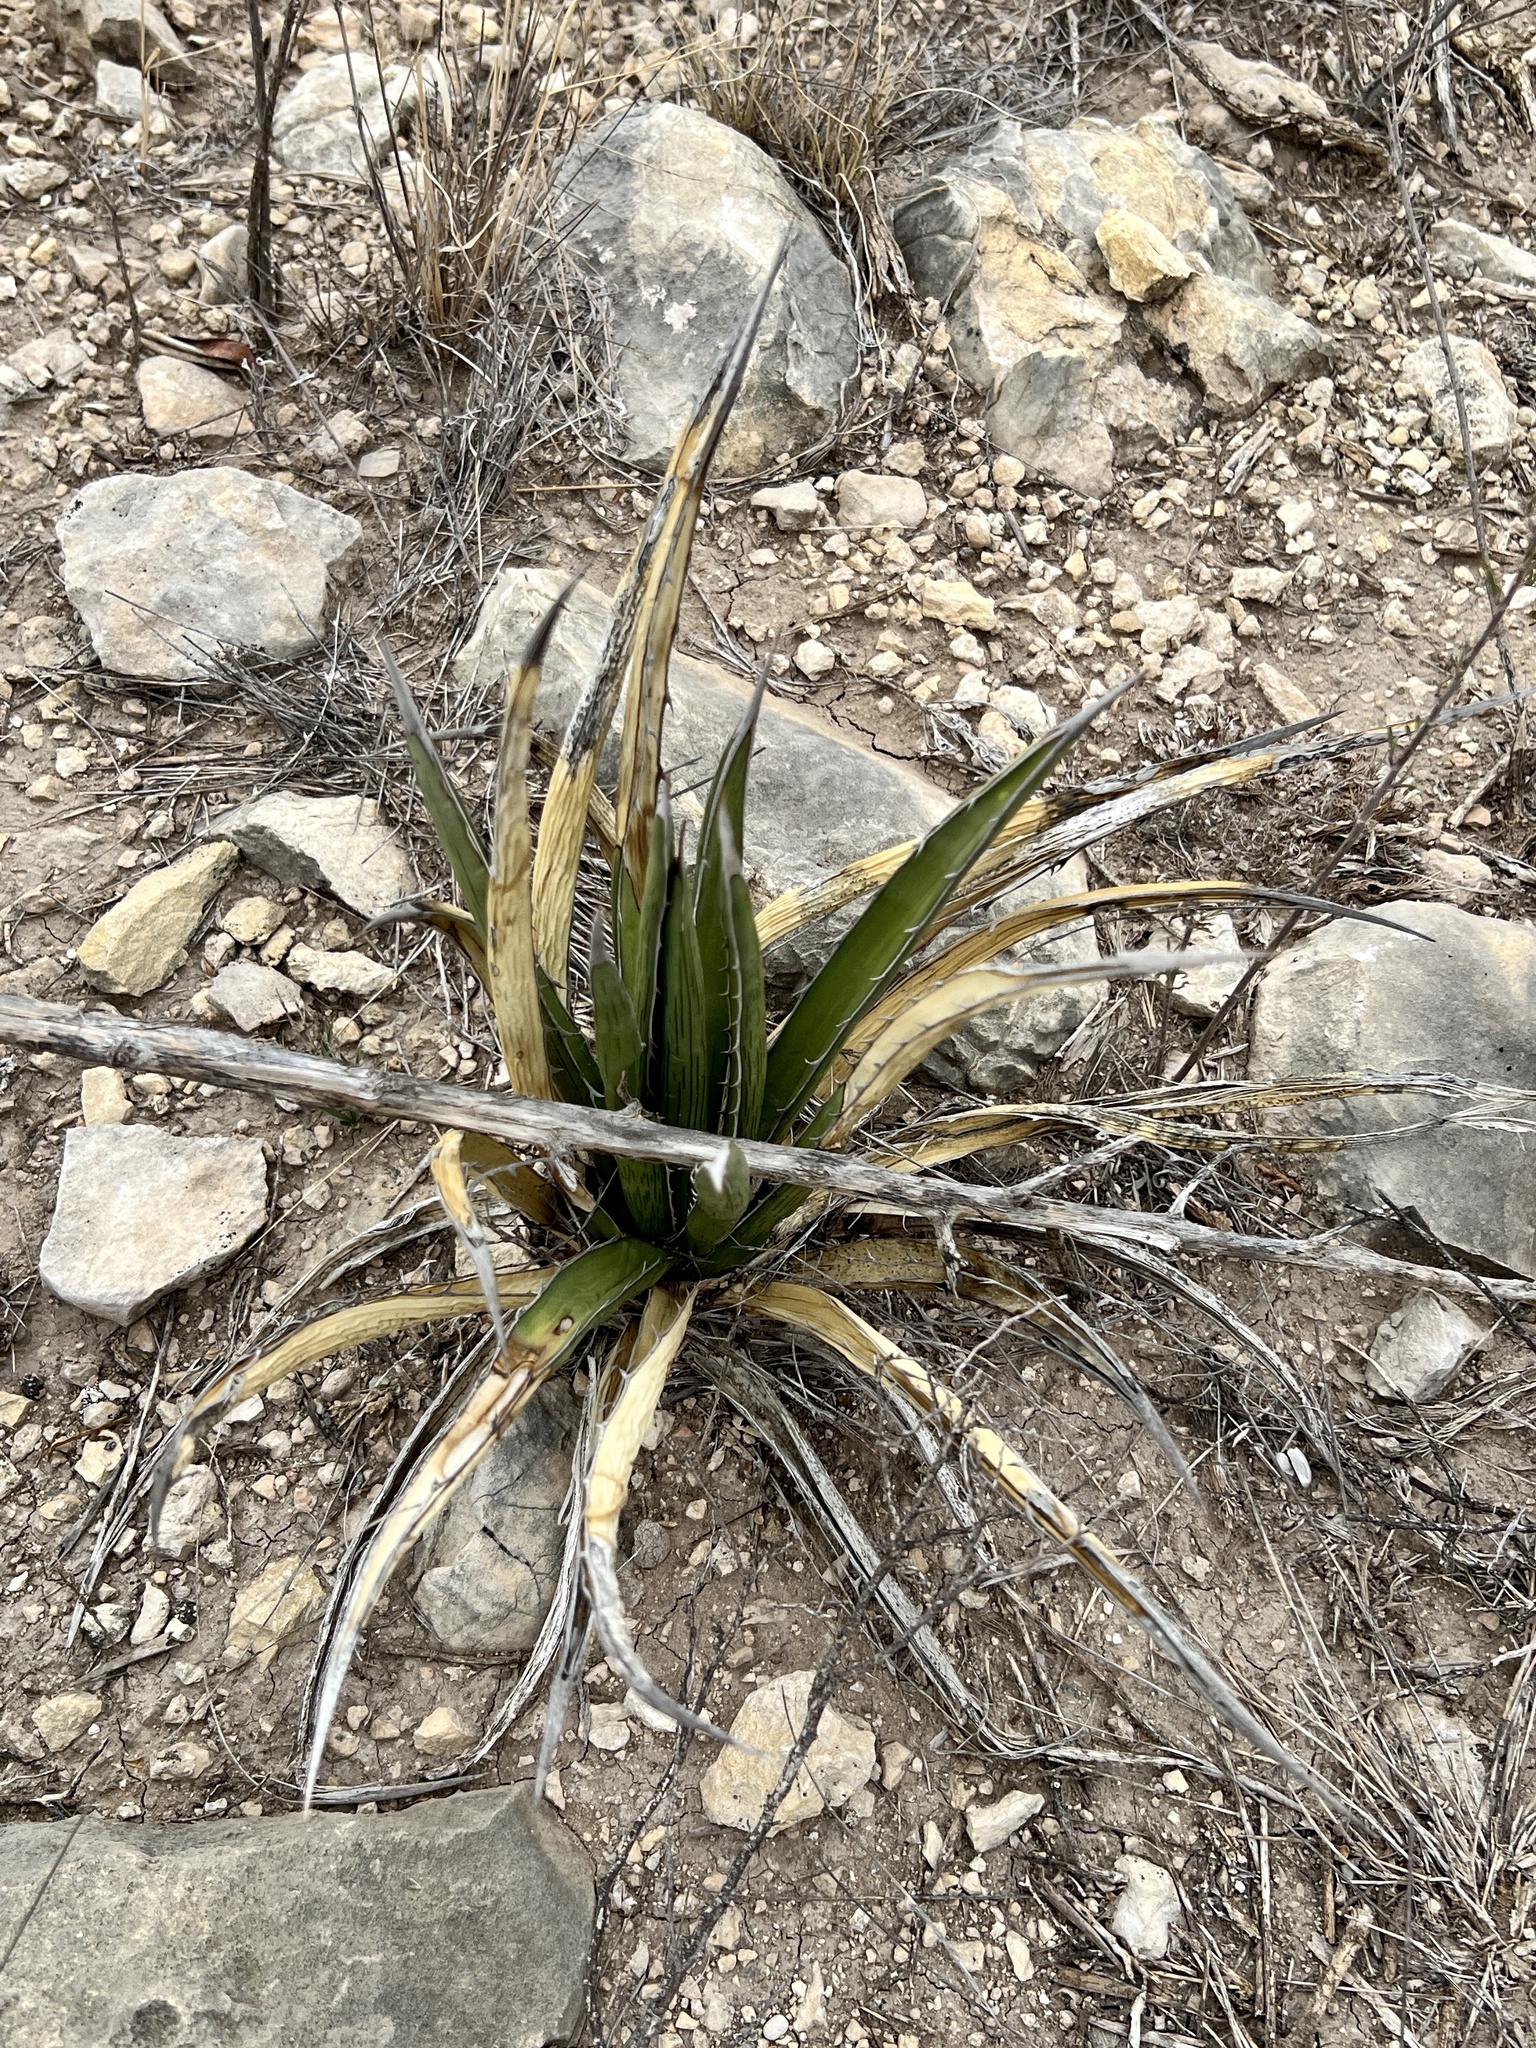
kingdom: Plantae
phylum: Tracheophyta
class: Liliopsida
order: Asparagales
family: Asparagaceae
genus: Agave
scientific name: Agave lechuguilla
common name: Lecheguilla agave
